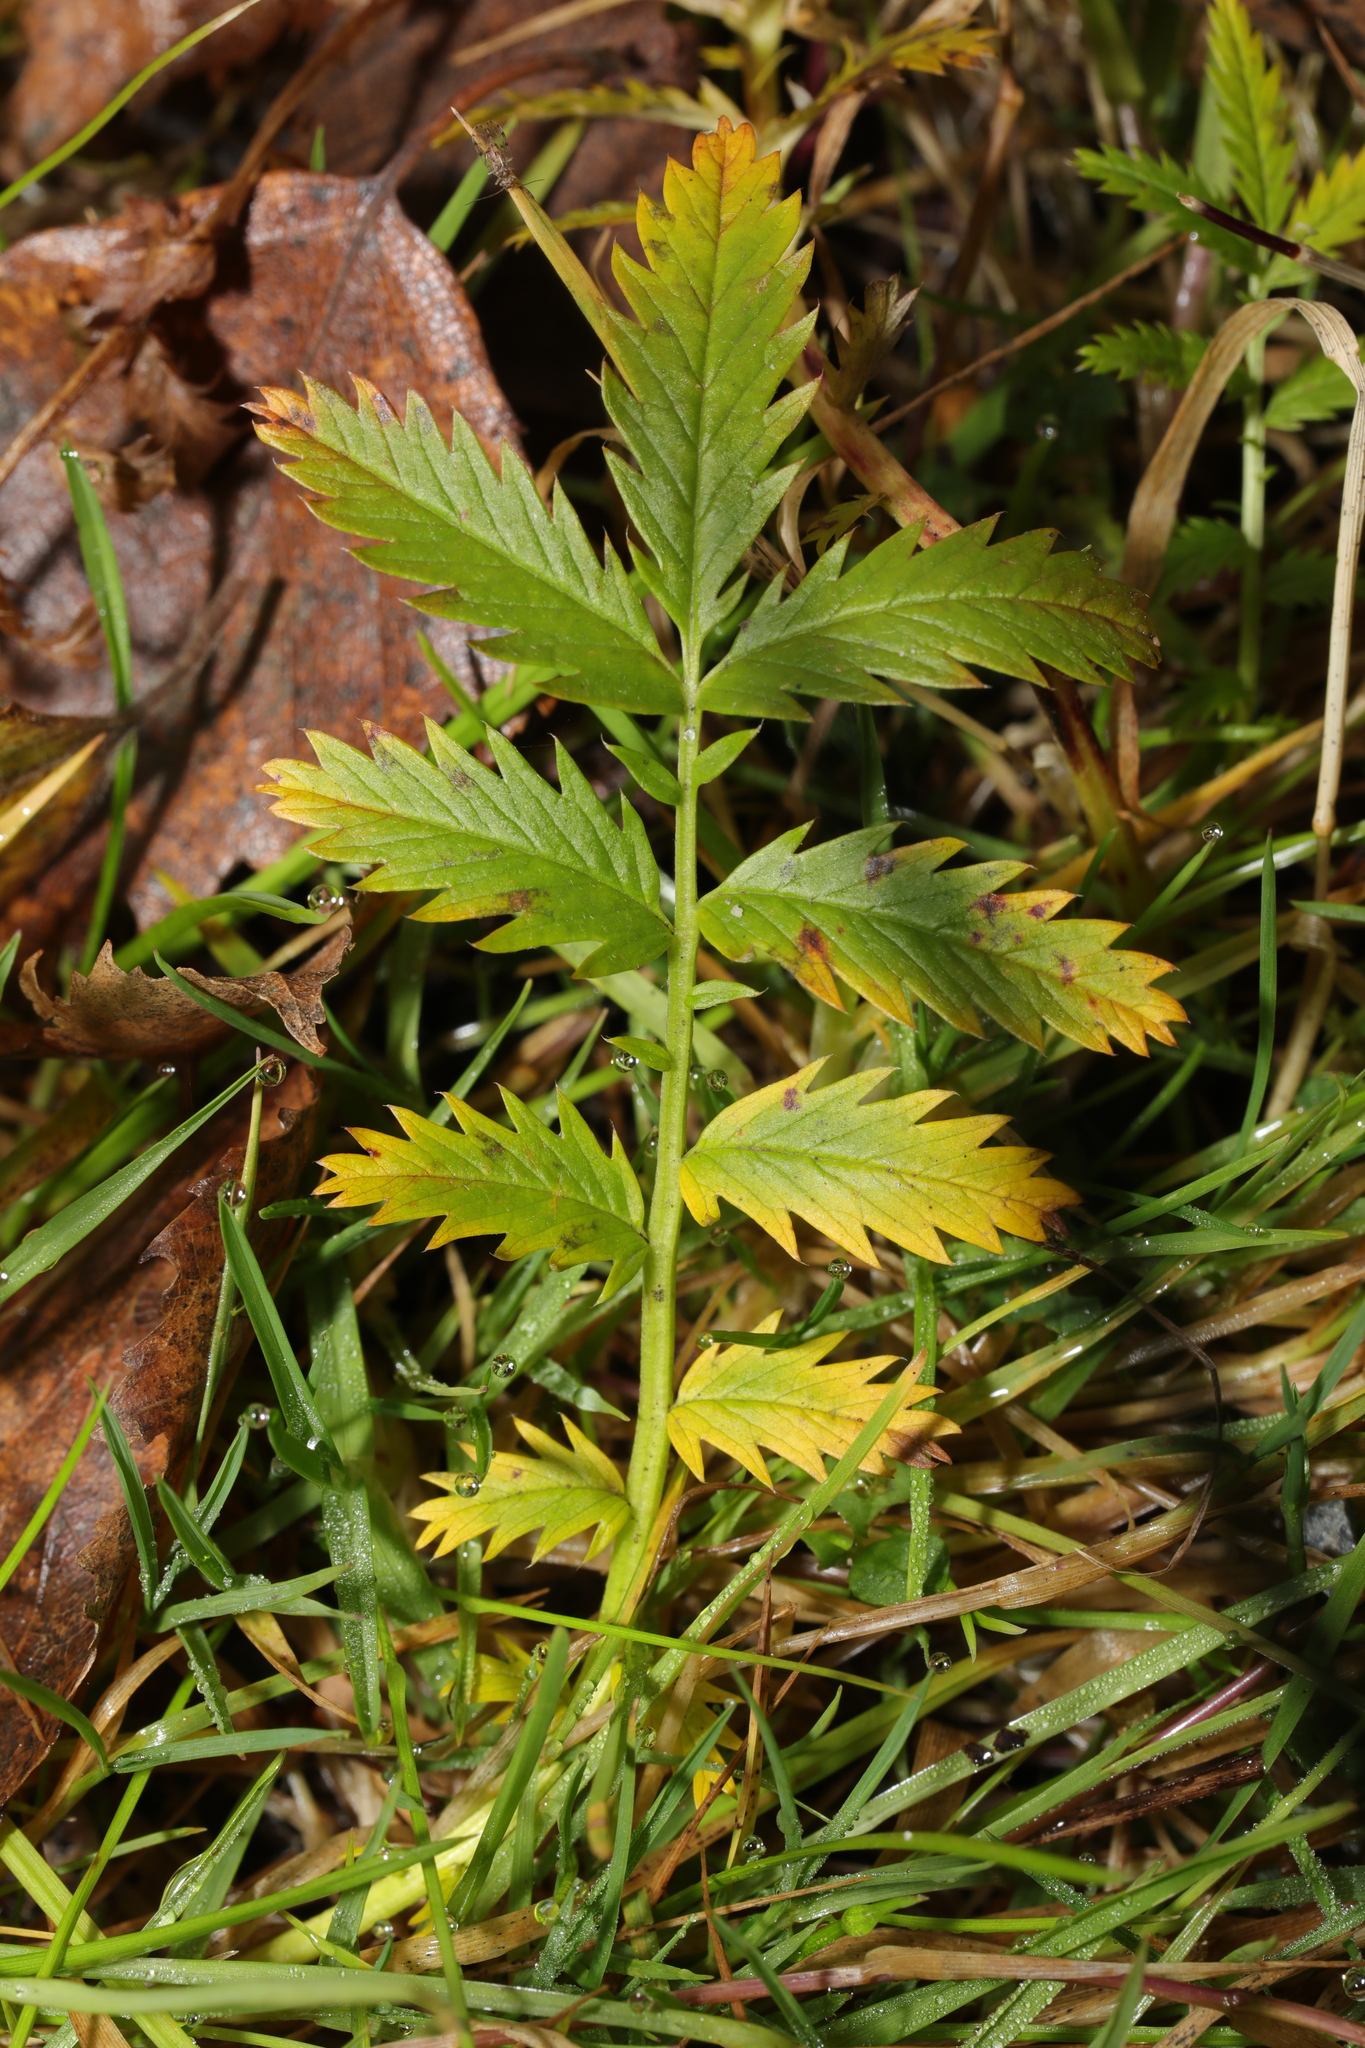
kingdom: Plantae
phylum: Tracheophyta
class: Magnoliopsida
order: Rosales
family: Rosaceae
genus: Argentina
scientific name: Argentina anserina
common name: Common silverweed
